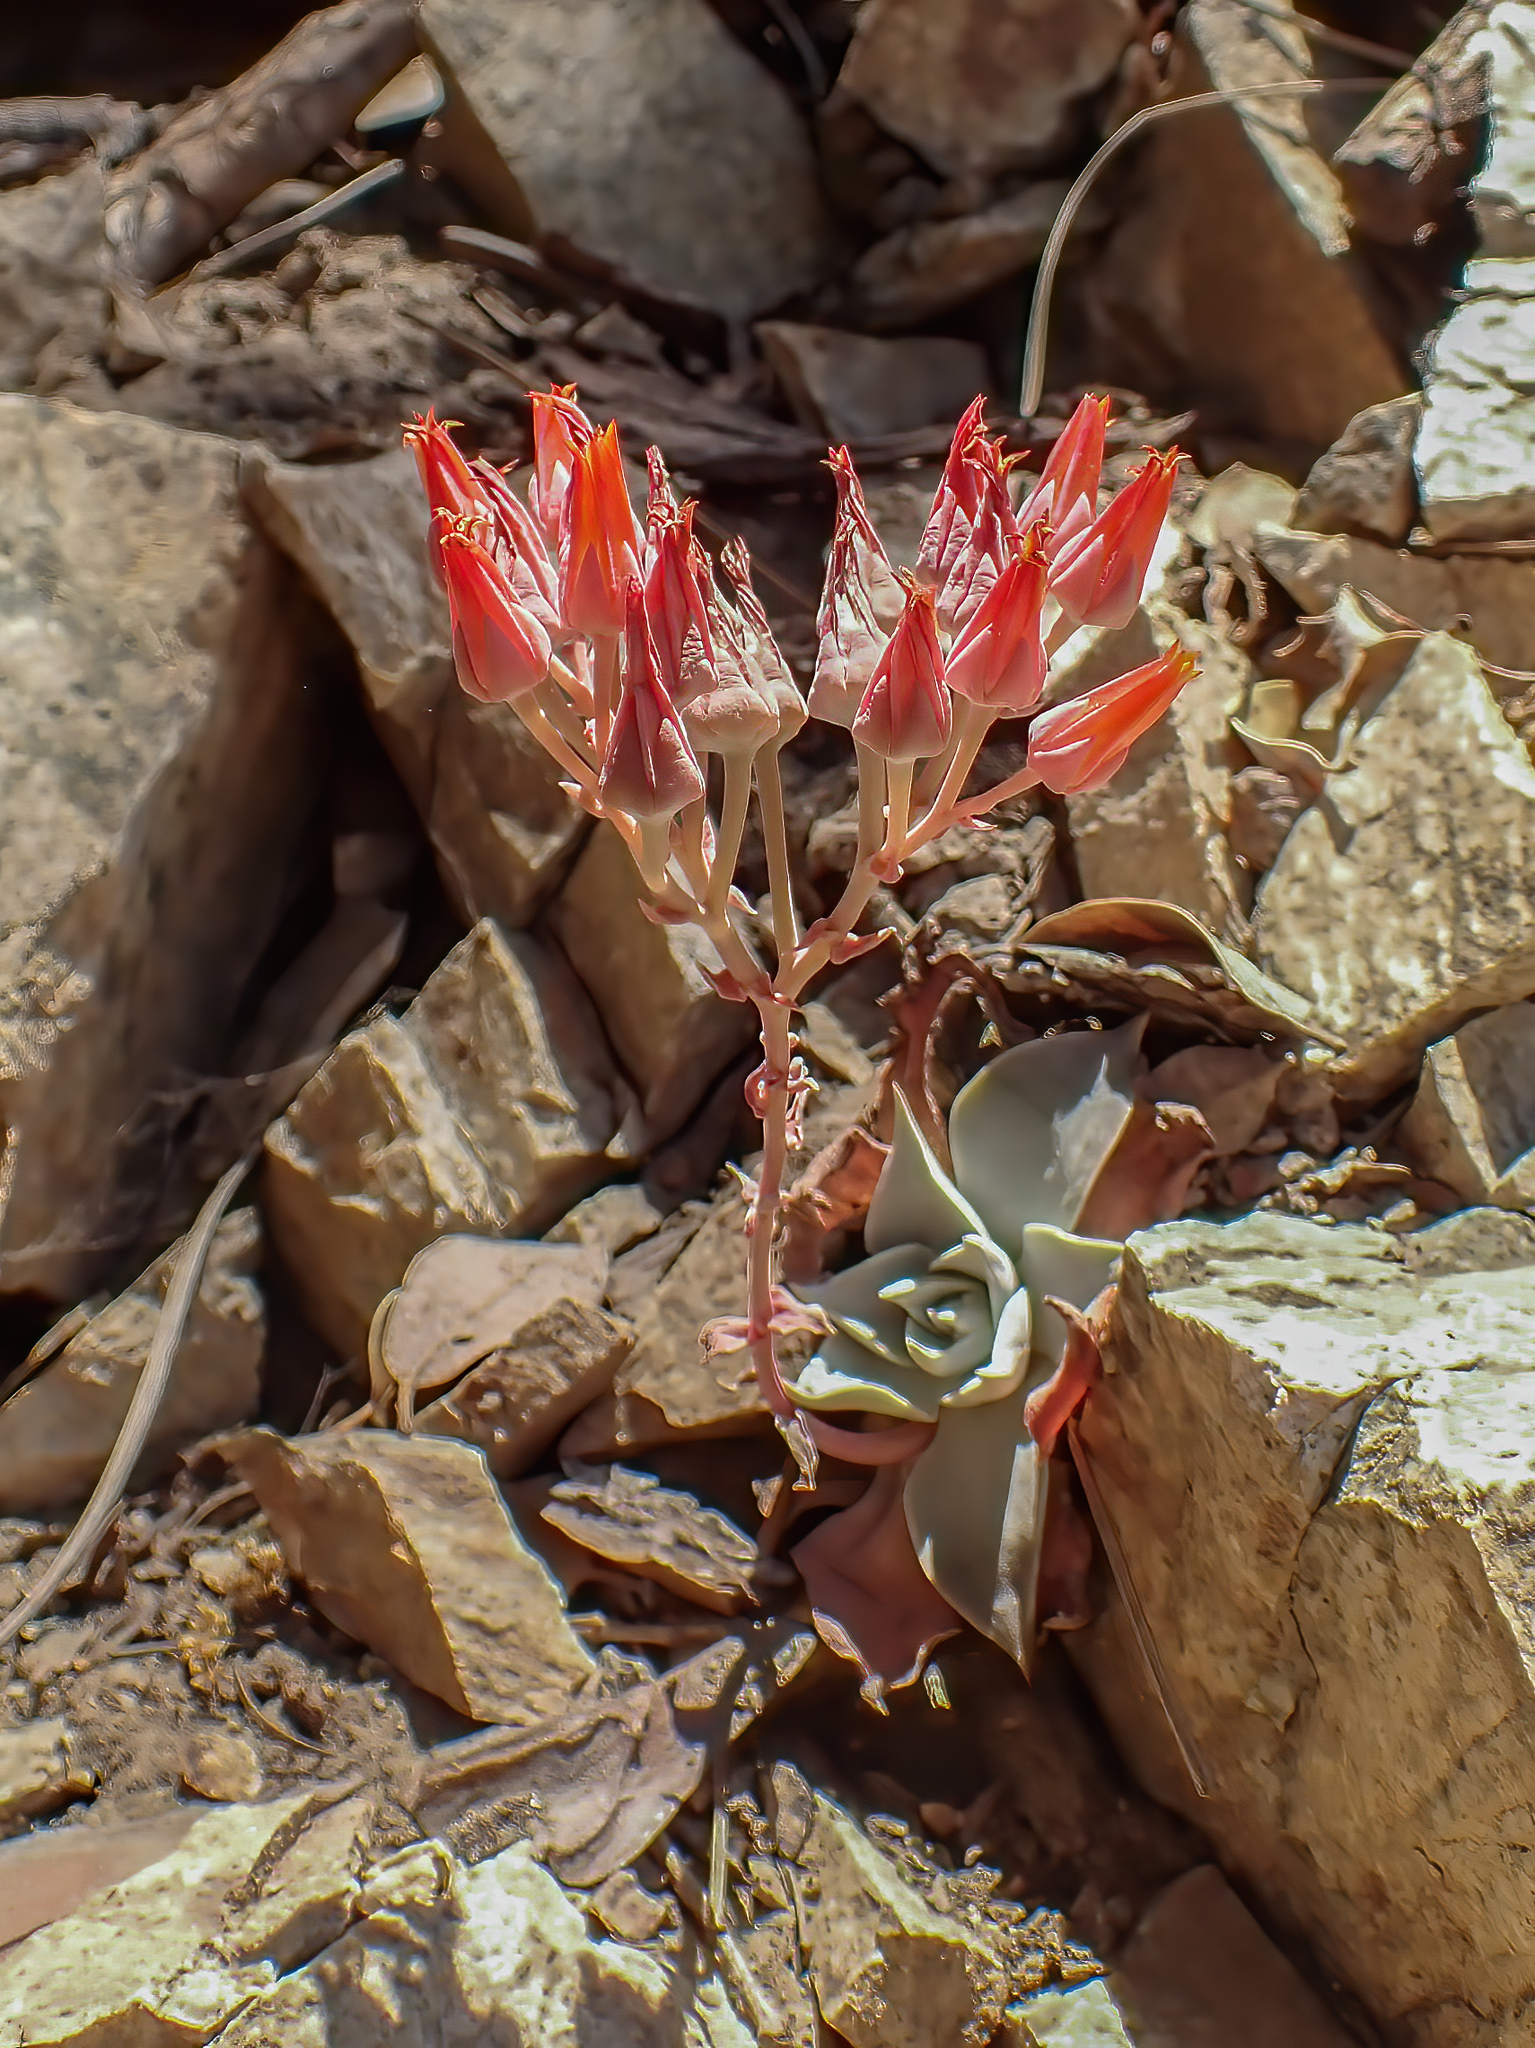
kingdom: Plantae
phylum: Tracheophyta
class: Magnoliopsida
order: Saxifragales
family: Crassulaceae
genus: Dudleya
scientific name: Dudleya cymosa
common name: Canyon dudleya
